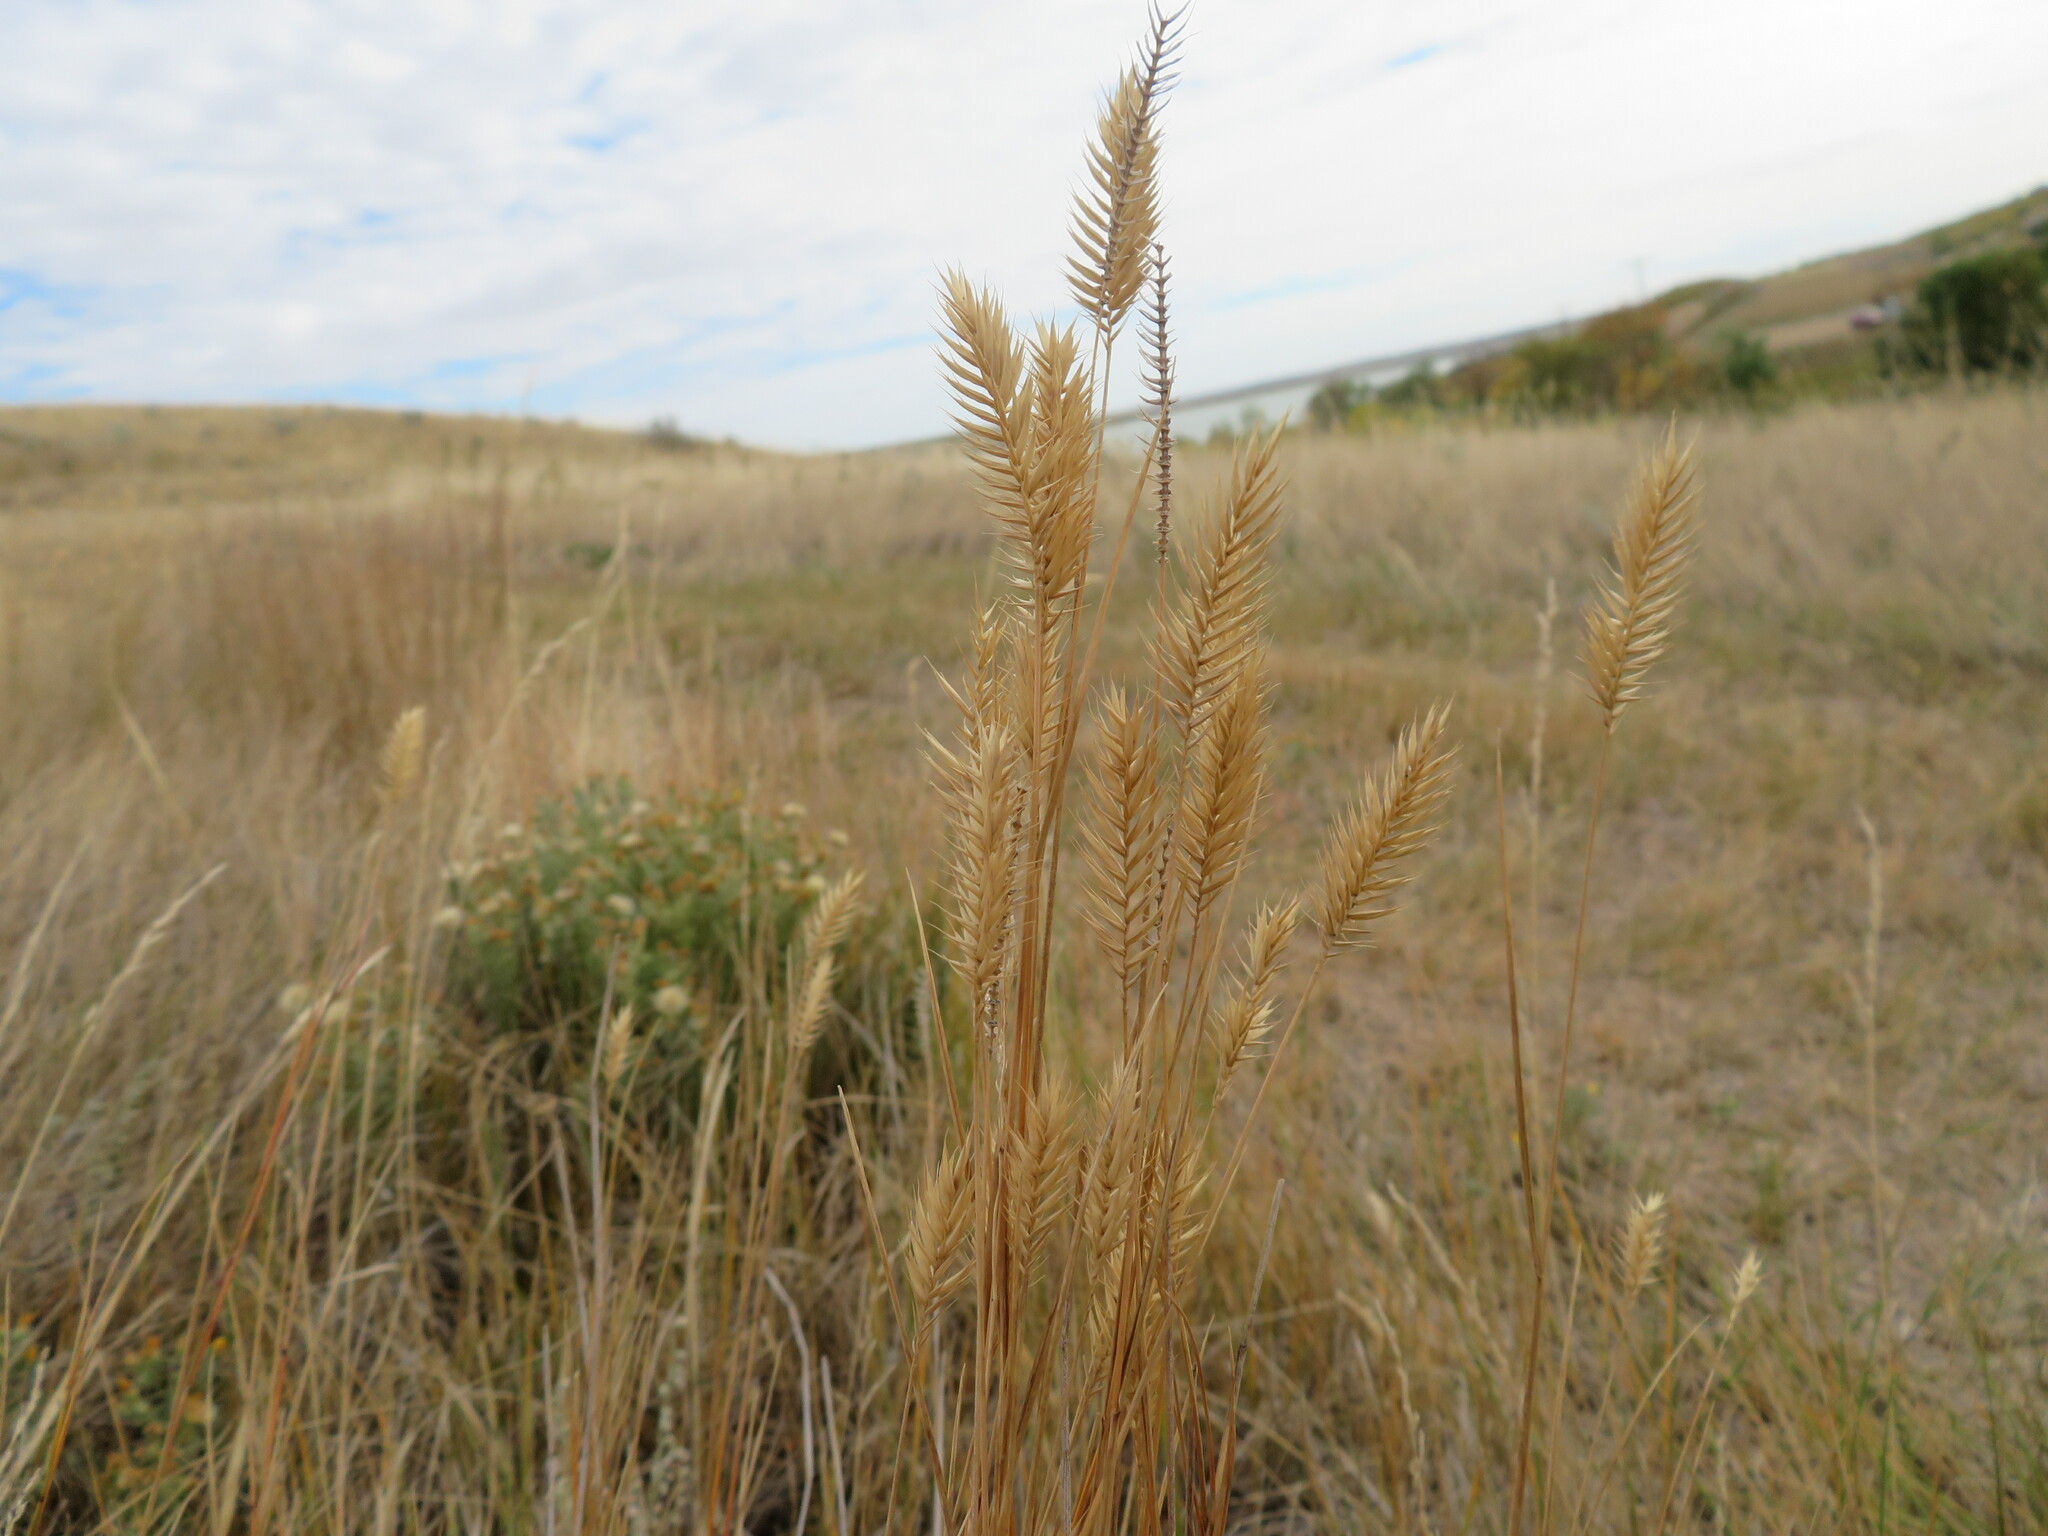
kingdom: Plantae
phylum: Tracheophyta
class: Liliopsida
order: Poales
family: Poaceae
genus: Agropyron
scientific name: Agropyron cristatum
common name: Crested wheatgrass
